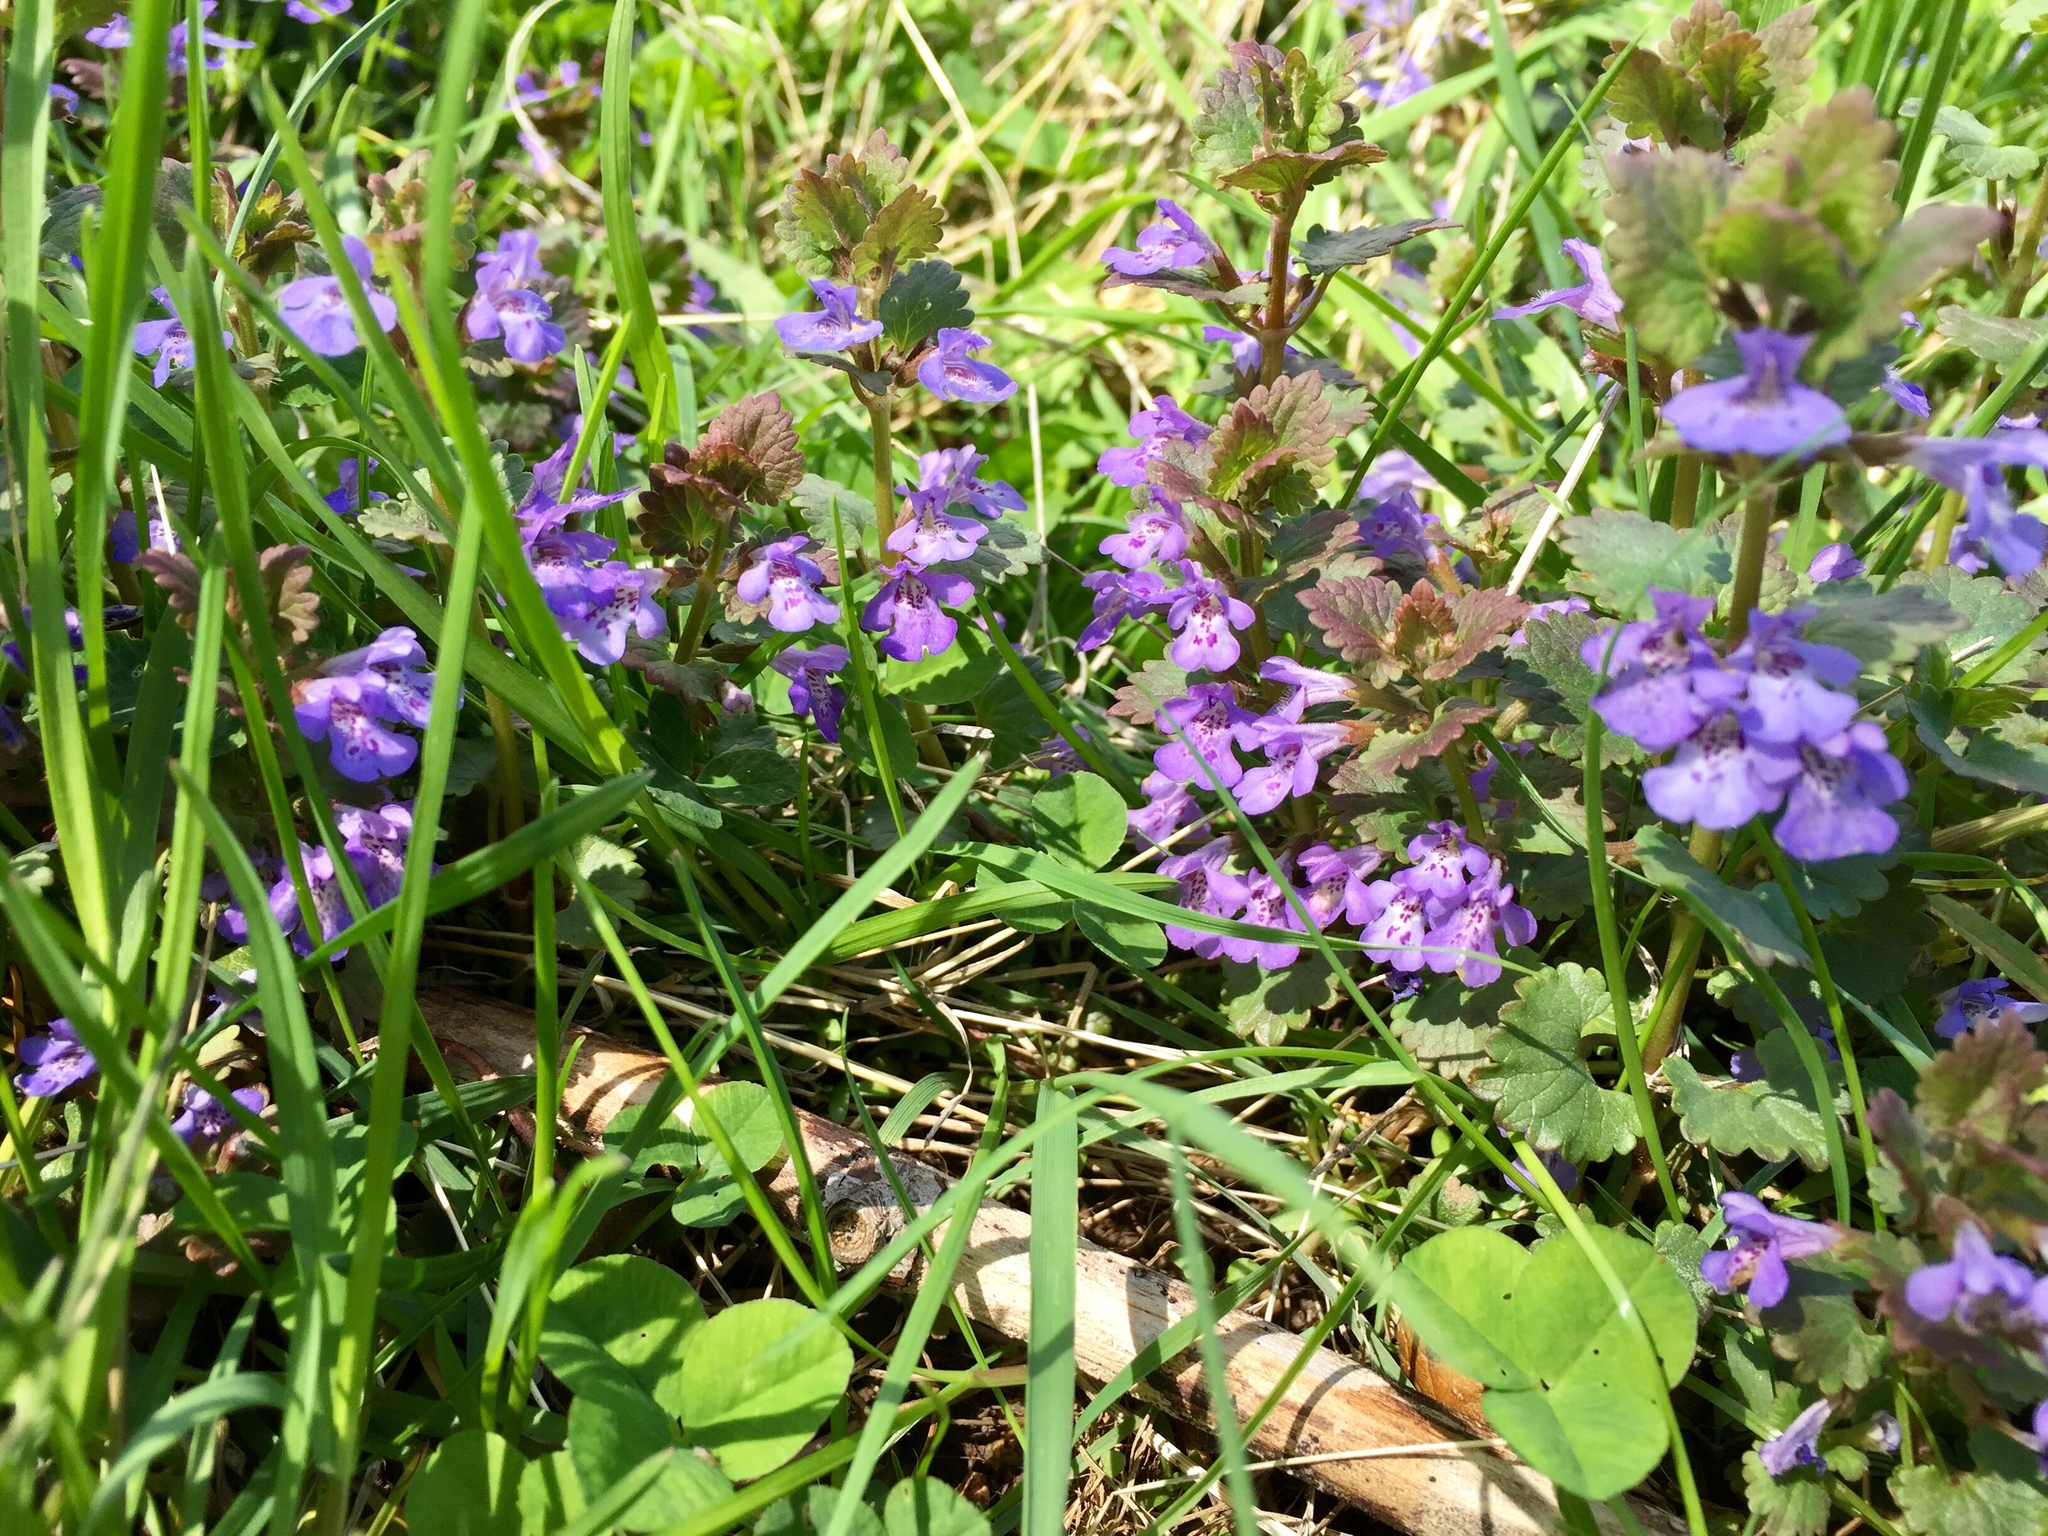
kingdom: Plantae
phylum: Tracheophyta
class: Magnoliopsida
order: Lamiales
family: Lamiaceae
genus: Glechoma
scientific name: Glechoma hederacea
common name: Ground ivy
